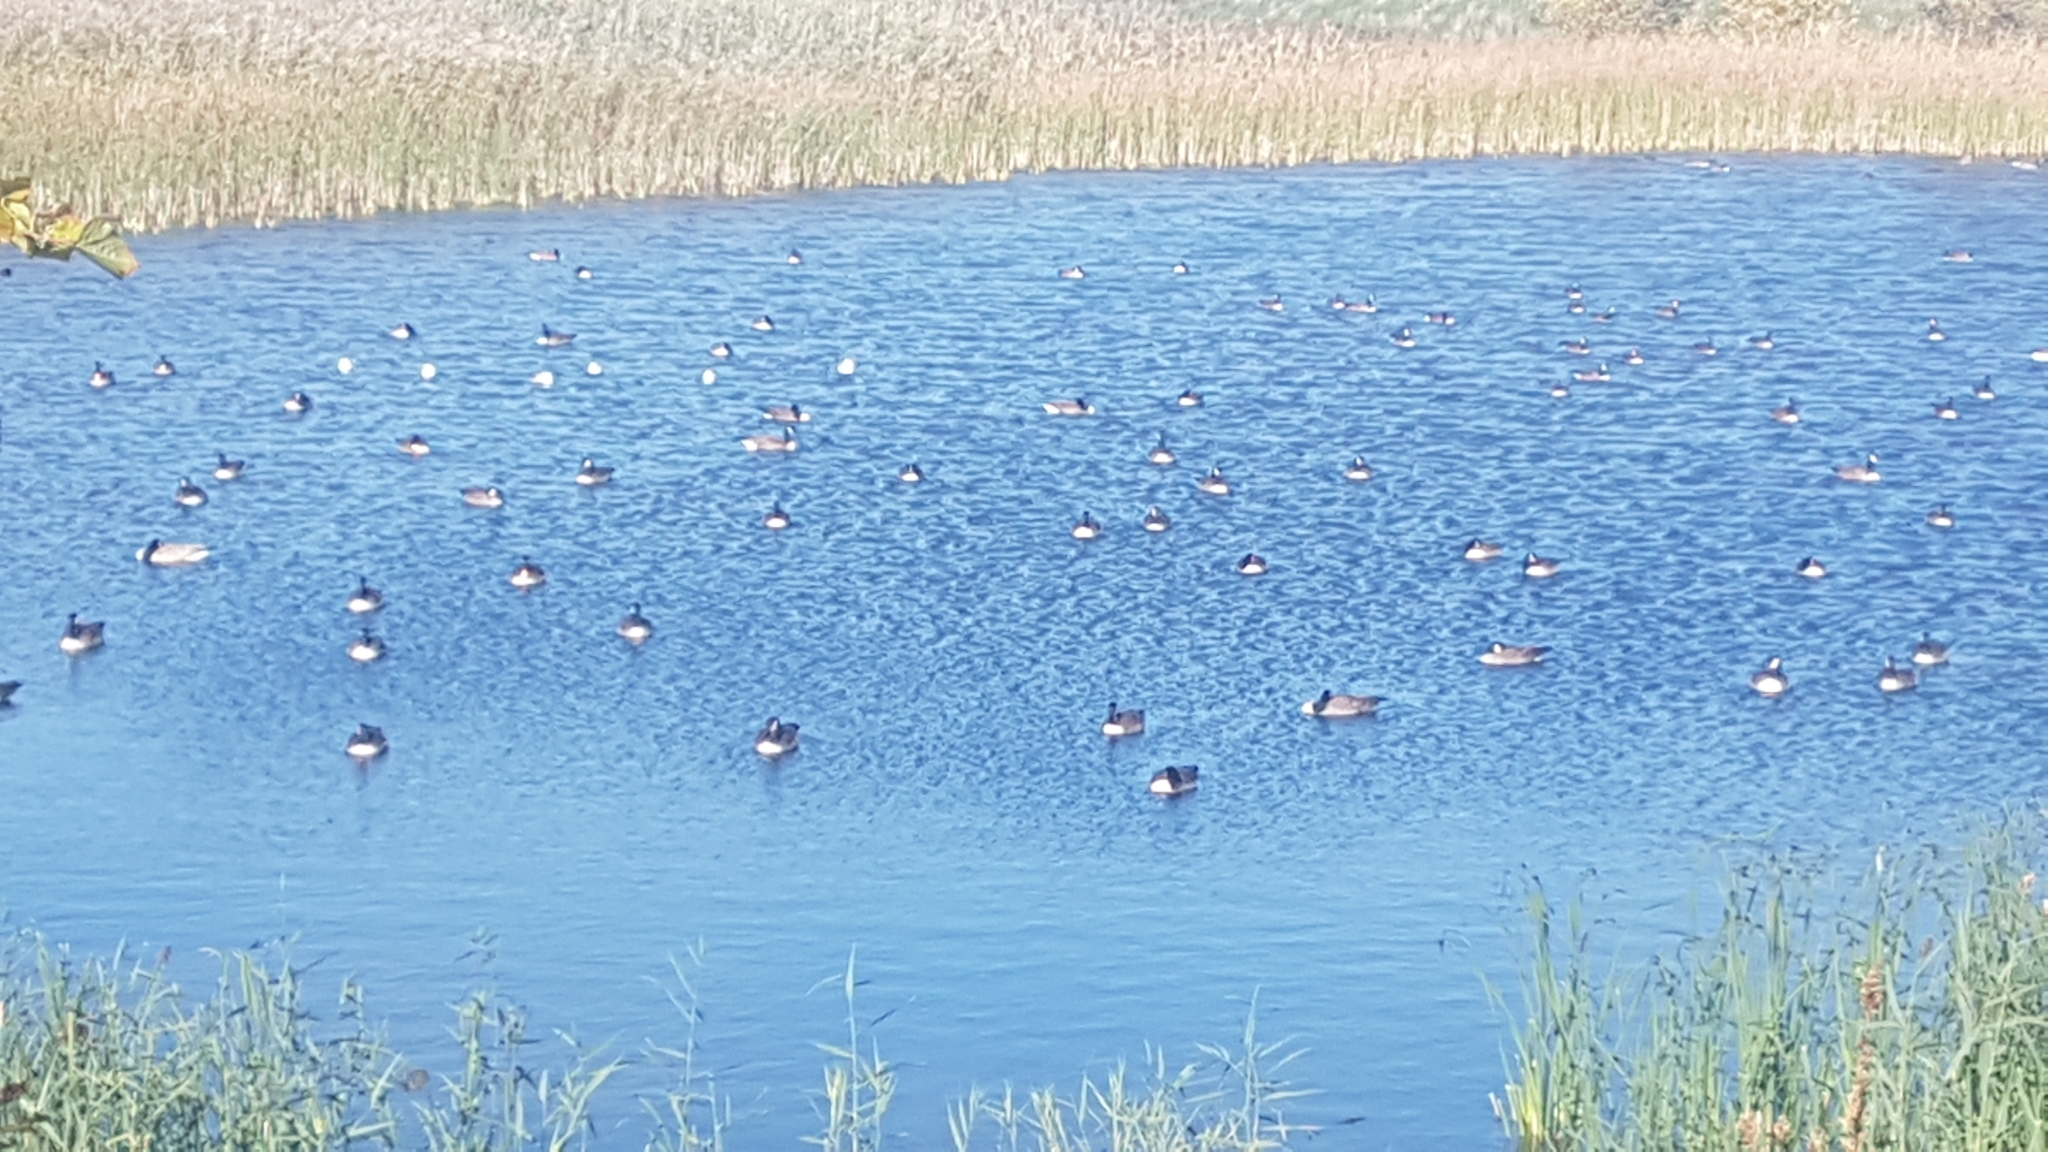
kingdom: Animalia
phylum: Chordata
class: Aves
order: Anseriformes
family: Anatidae
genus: Branta
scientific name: Branta canadensis
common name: Canada goose
